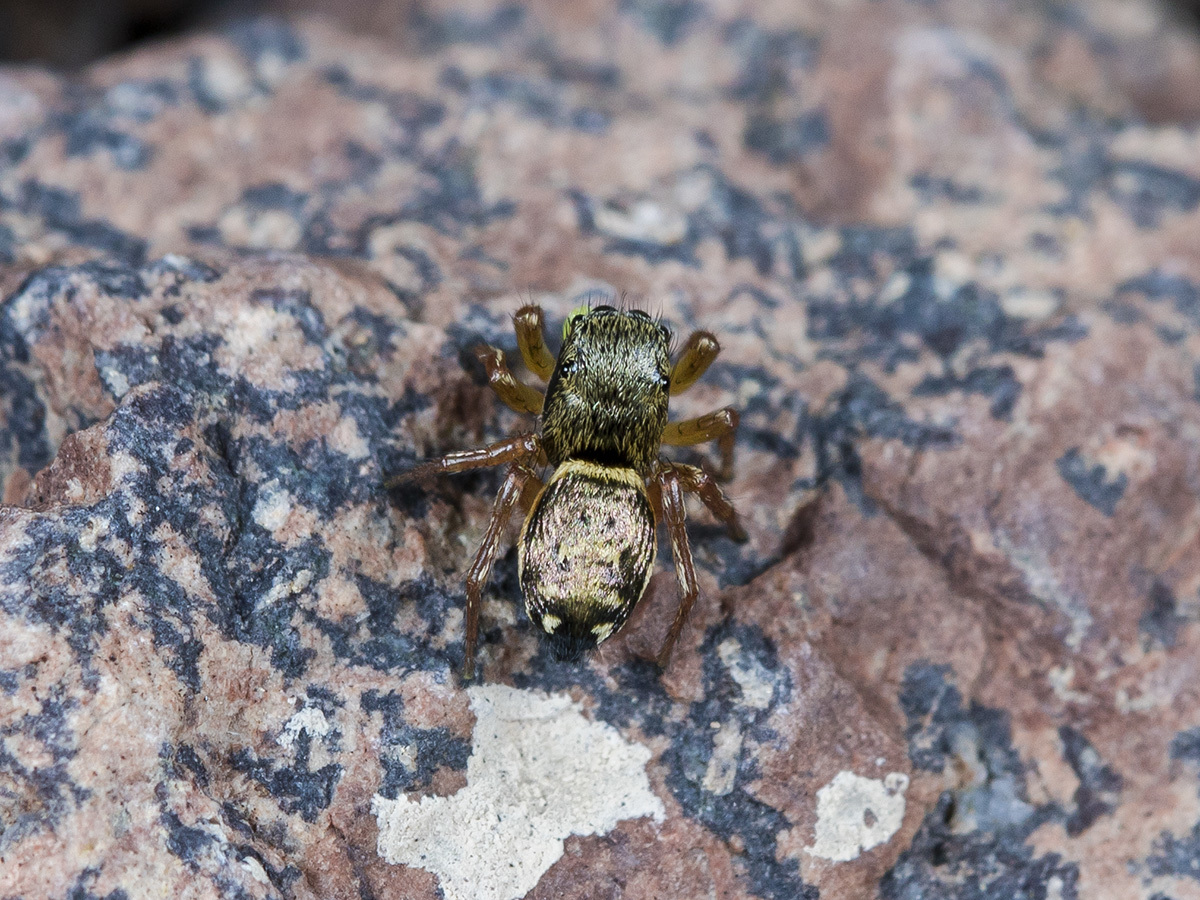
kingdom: Animalia
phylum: Arthropoda
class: Arachnida
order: Araneae
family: Salticidae
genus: Heliophanus
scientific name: Heliophanus curvidens
